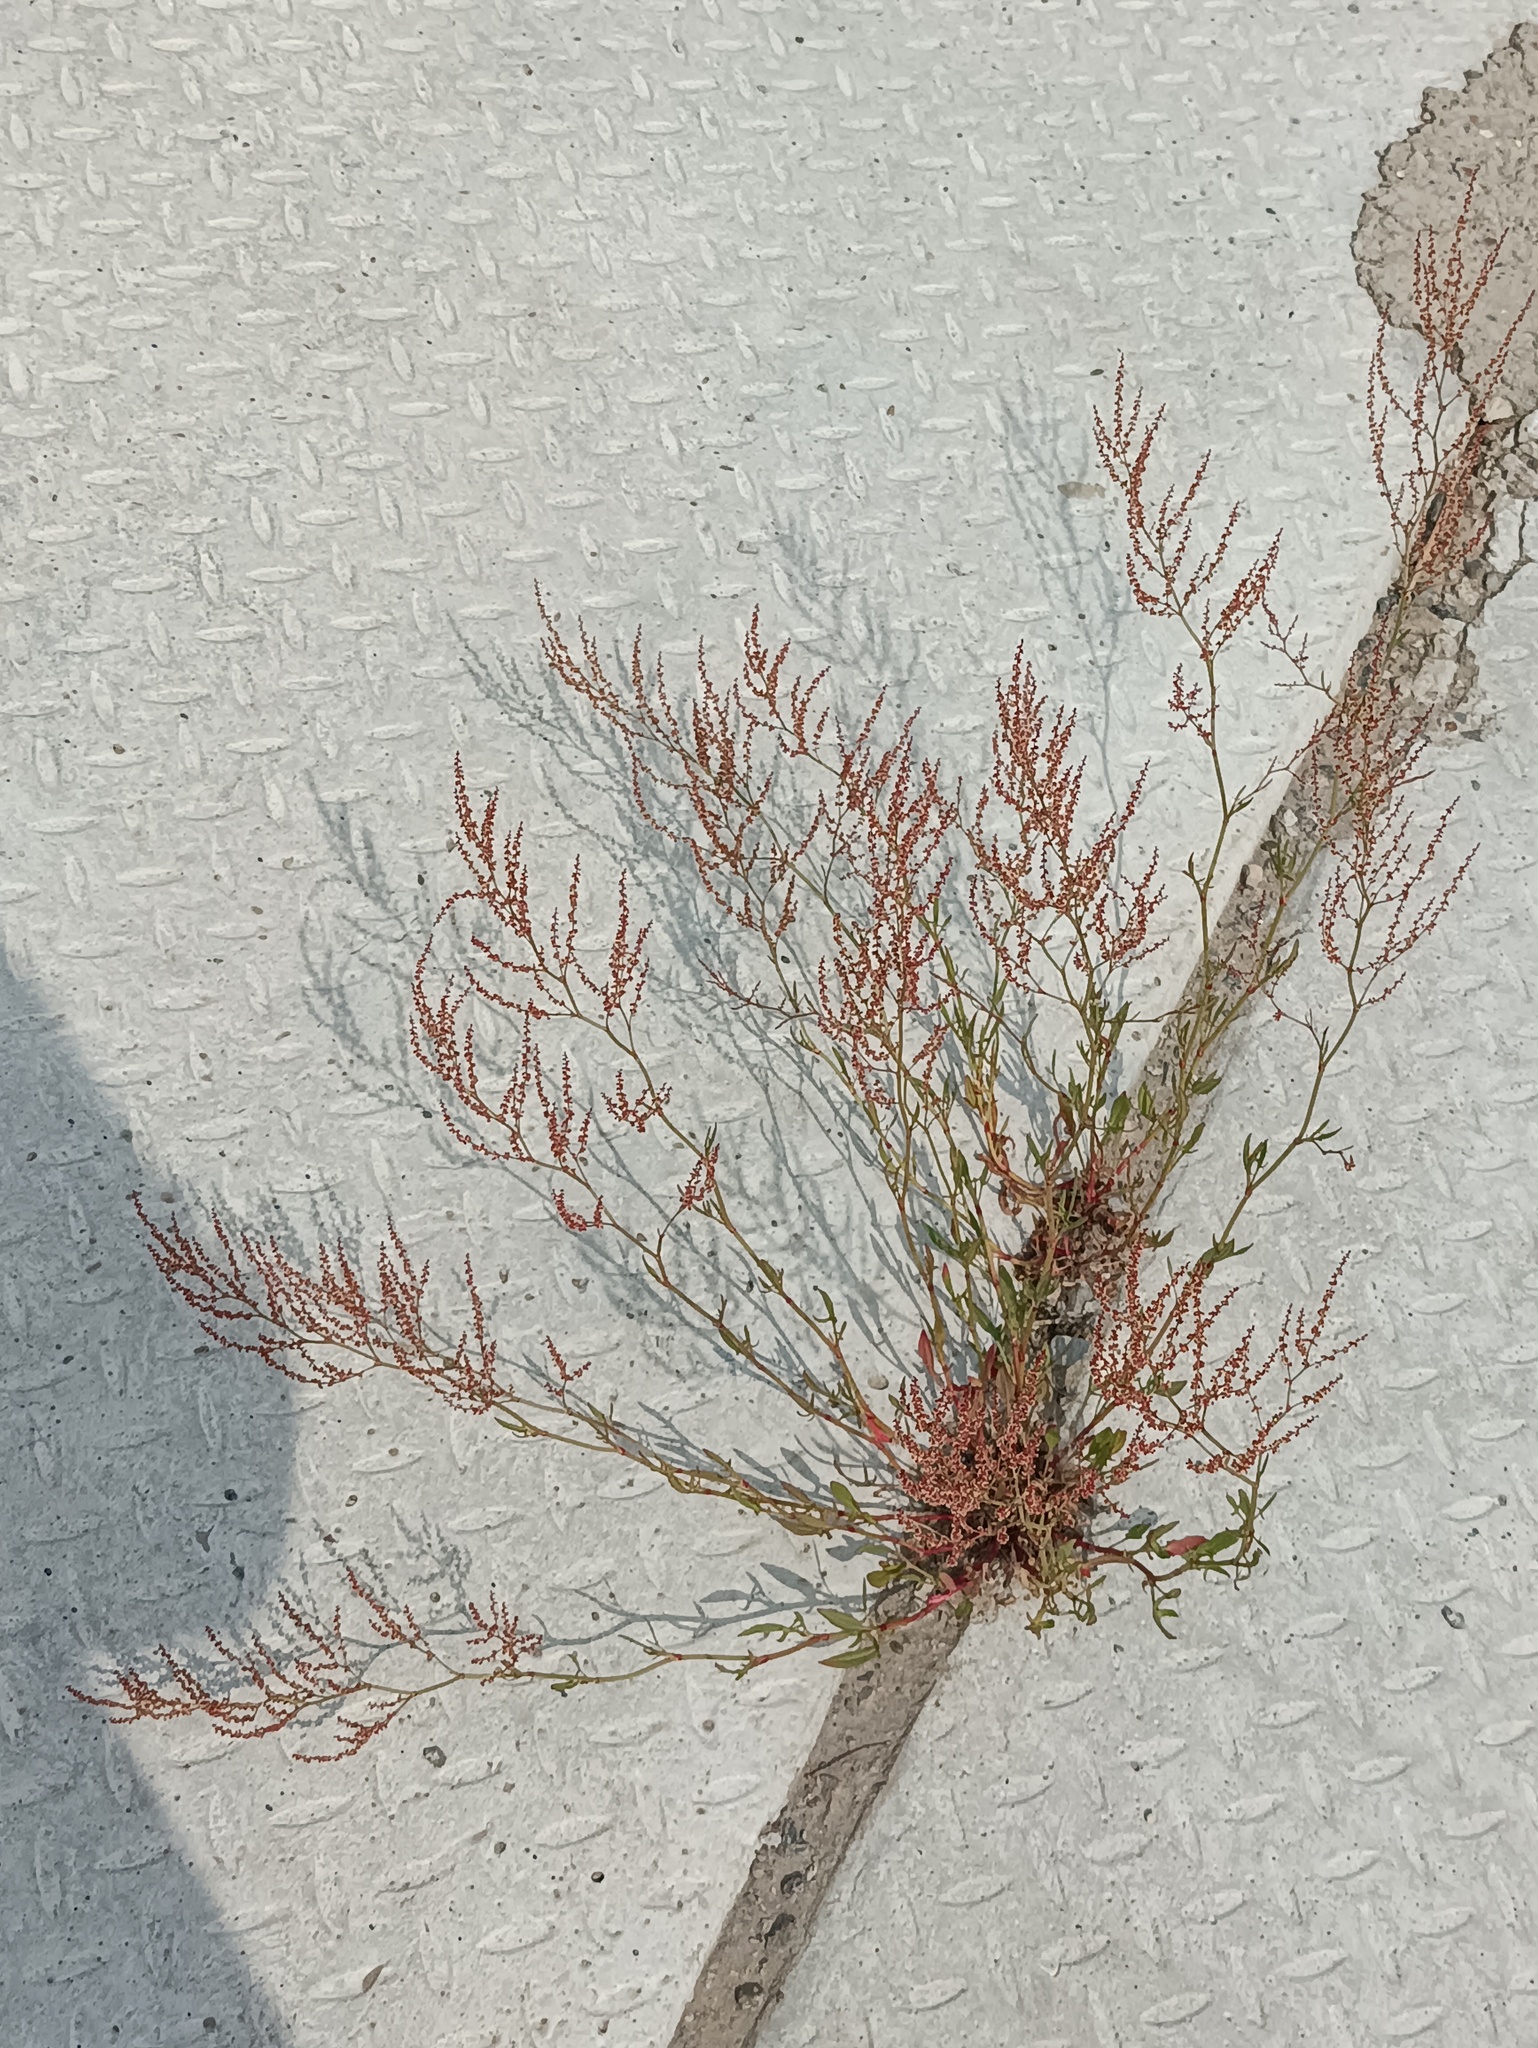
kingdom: Plantae
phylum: Tracheophyta
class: Magnoliopsida
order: Caryophyllales
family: Polygonaceae
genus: Rumex
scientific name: Rumex acetosella
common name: Common sheep sorrel
